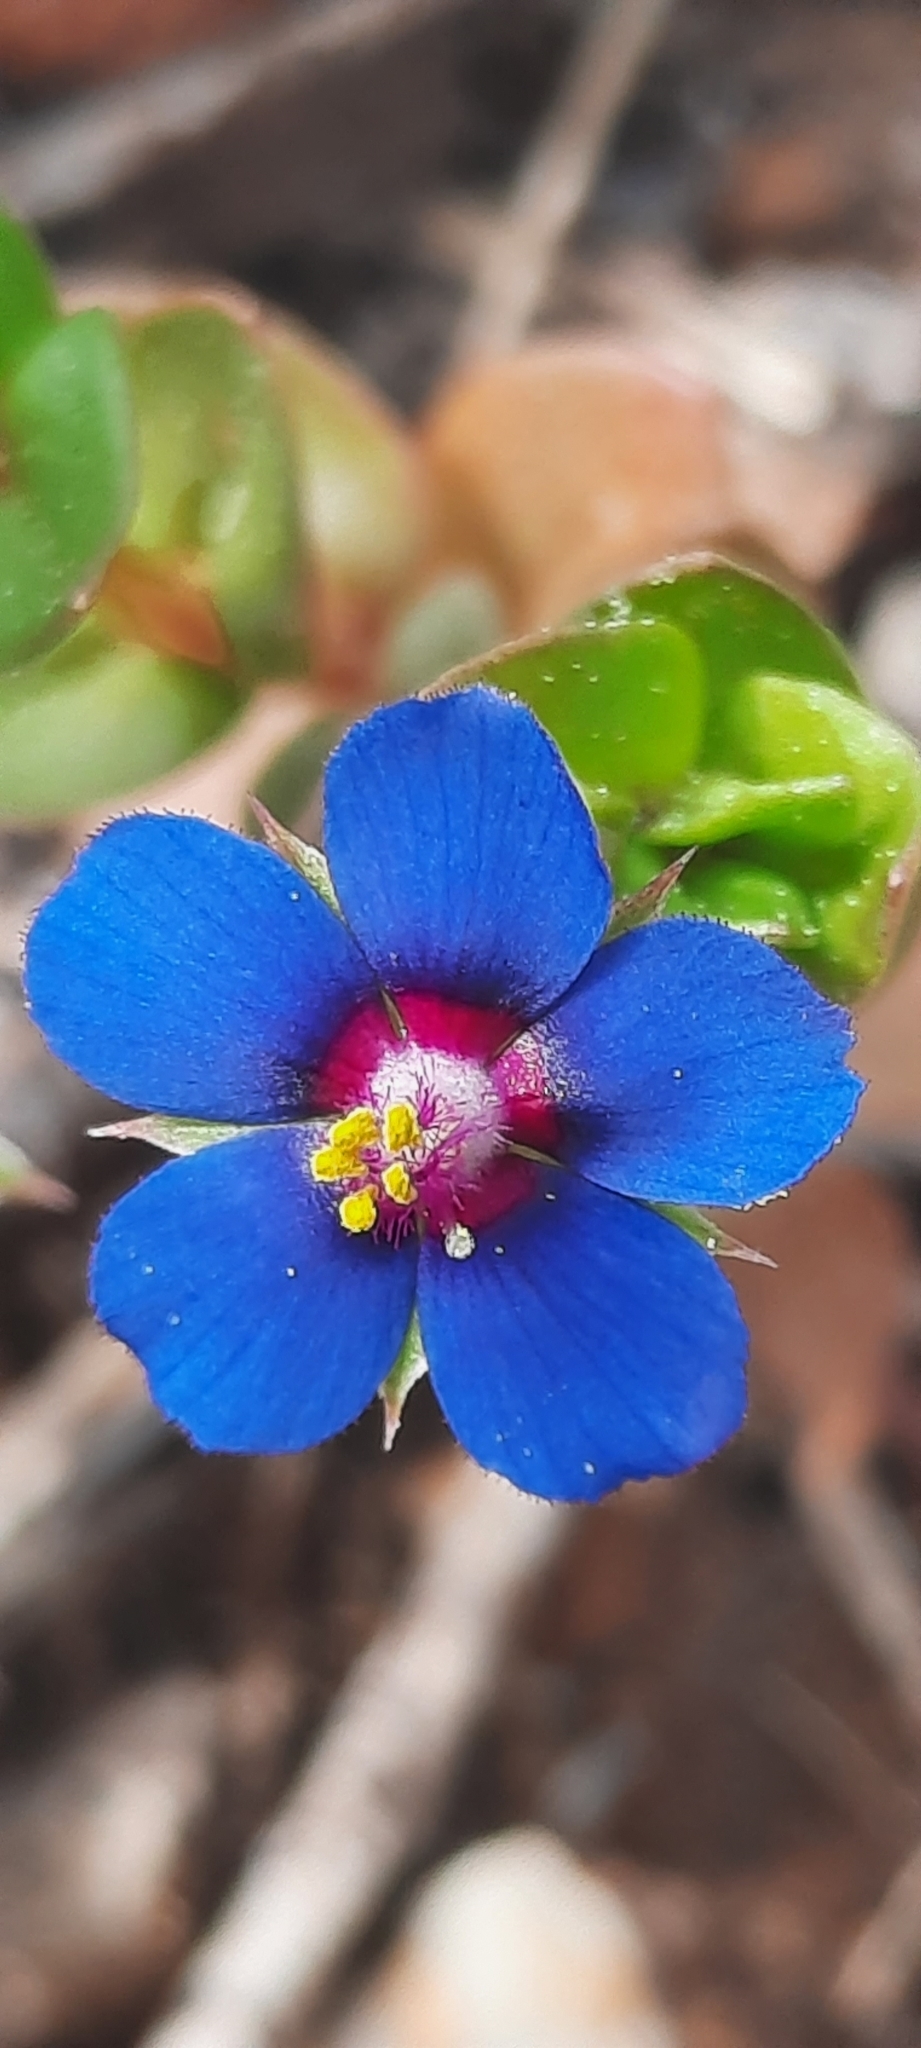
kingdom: Plantae
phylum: Tracheophyta
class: Magnoliopsida
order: Ericales
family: Primulaceae
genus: Lysimachia
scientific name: Lysimachia foemina
